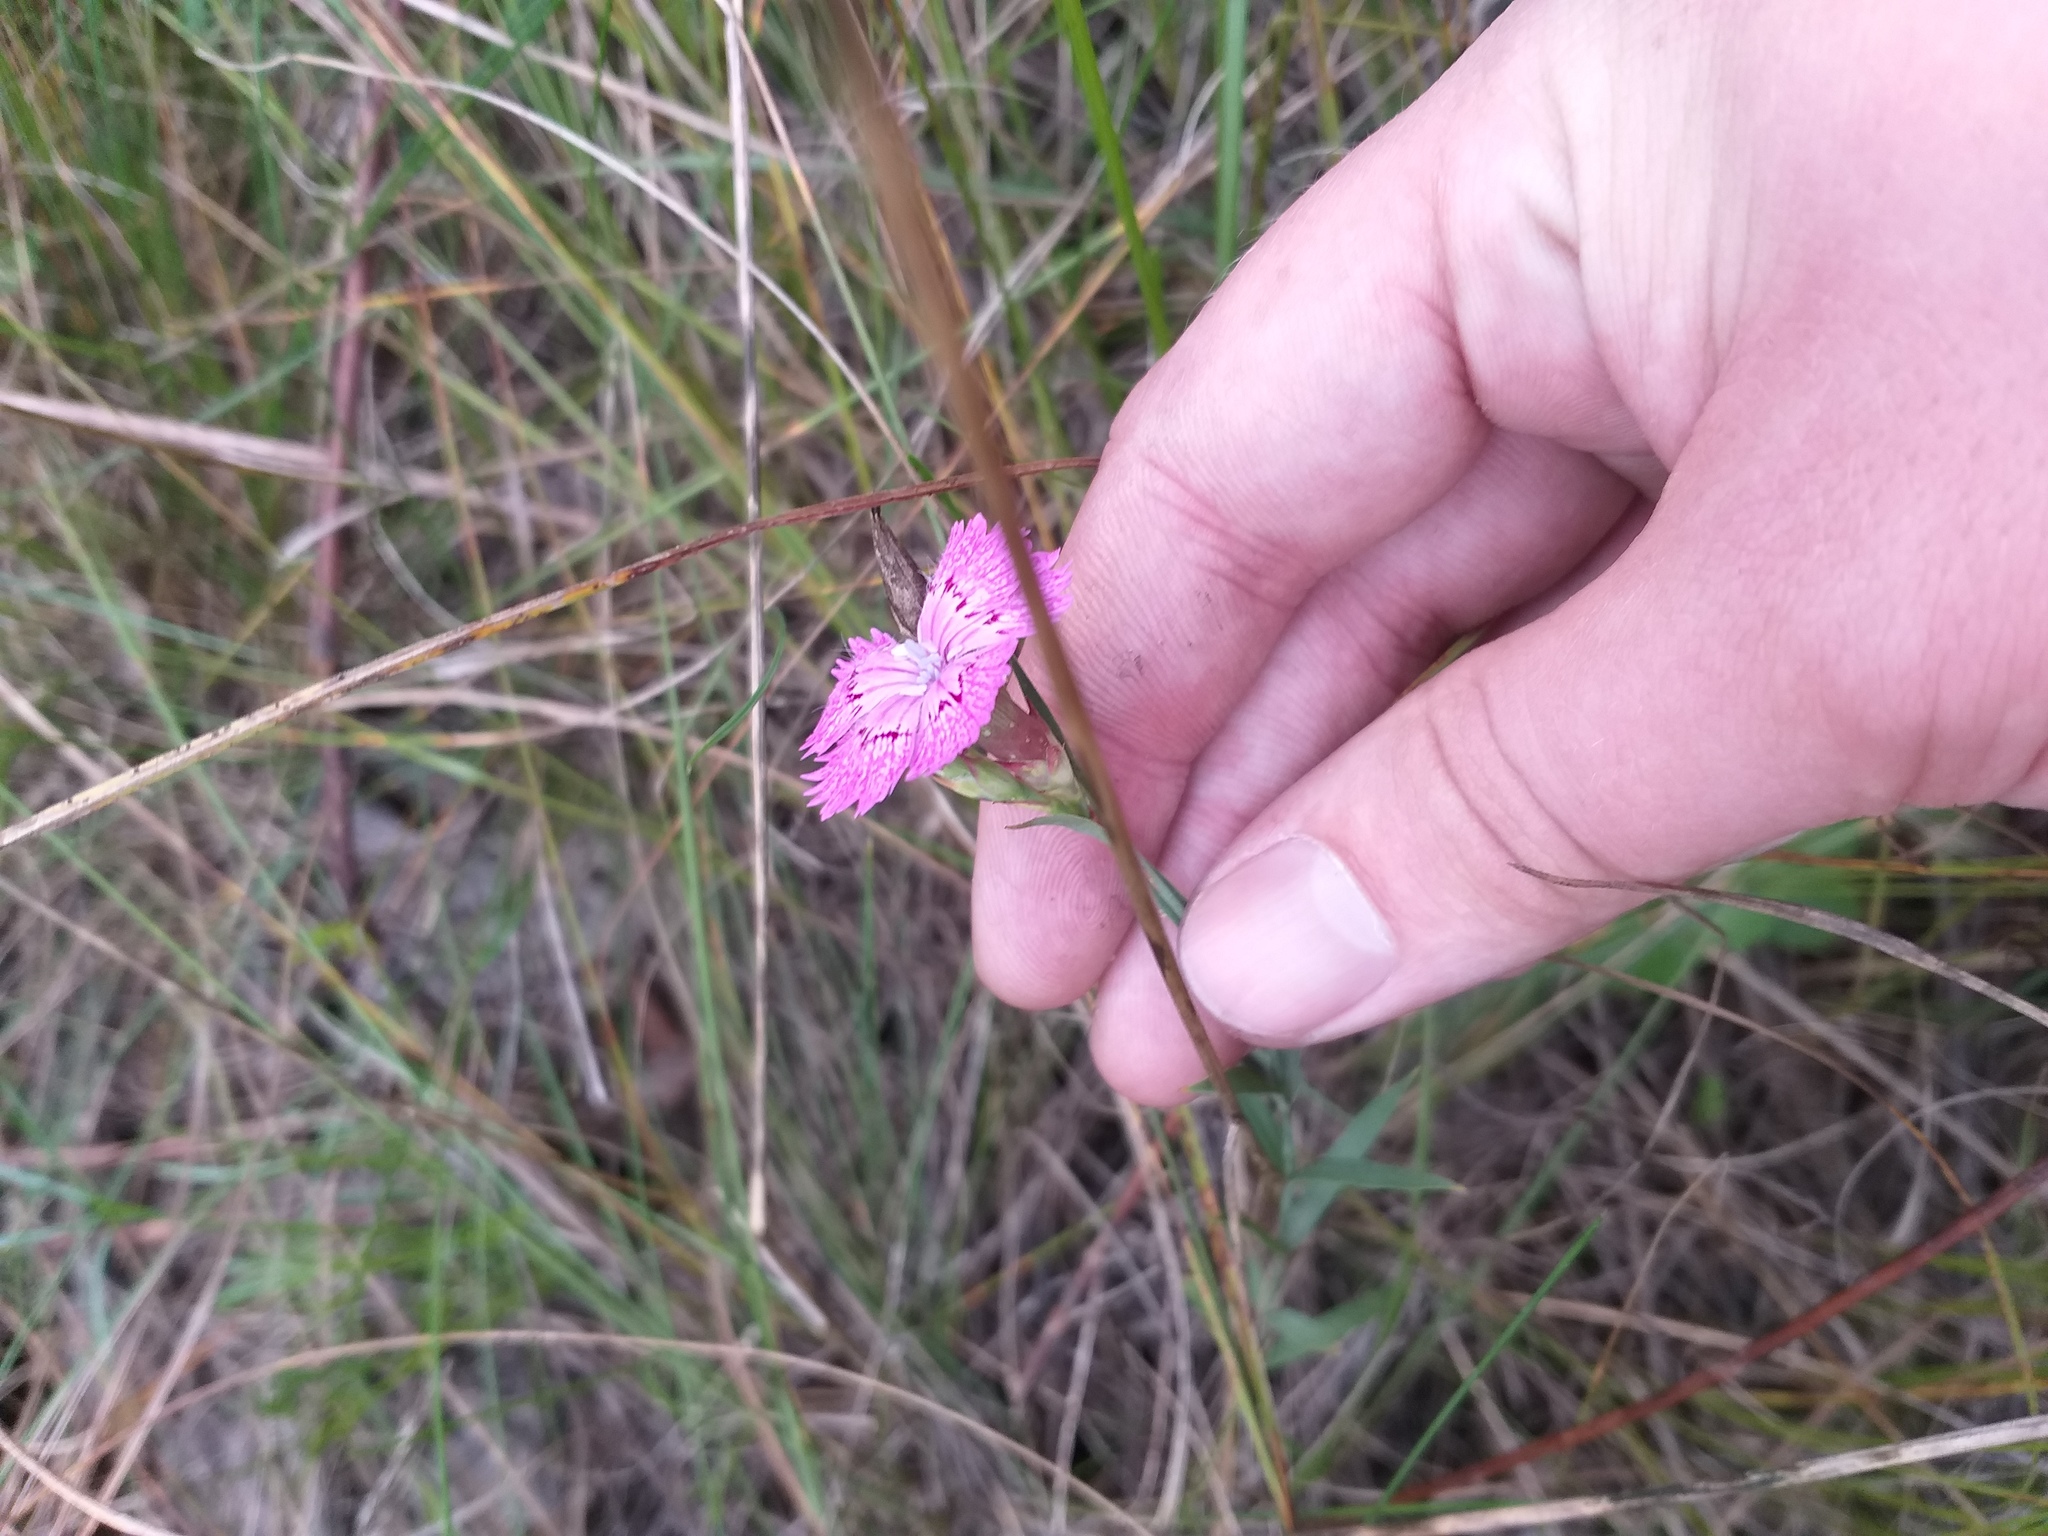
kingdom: Plantae
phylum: Tracheophyta
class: Magnoliopsida
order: Caryophyllales
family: Caryophyllaceae
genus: Dianthus
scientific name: Dianthus chinensis
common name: Rainbow pink
